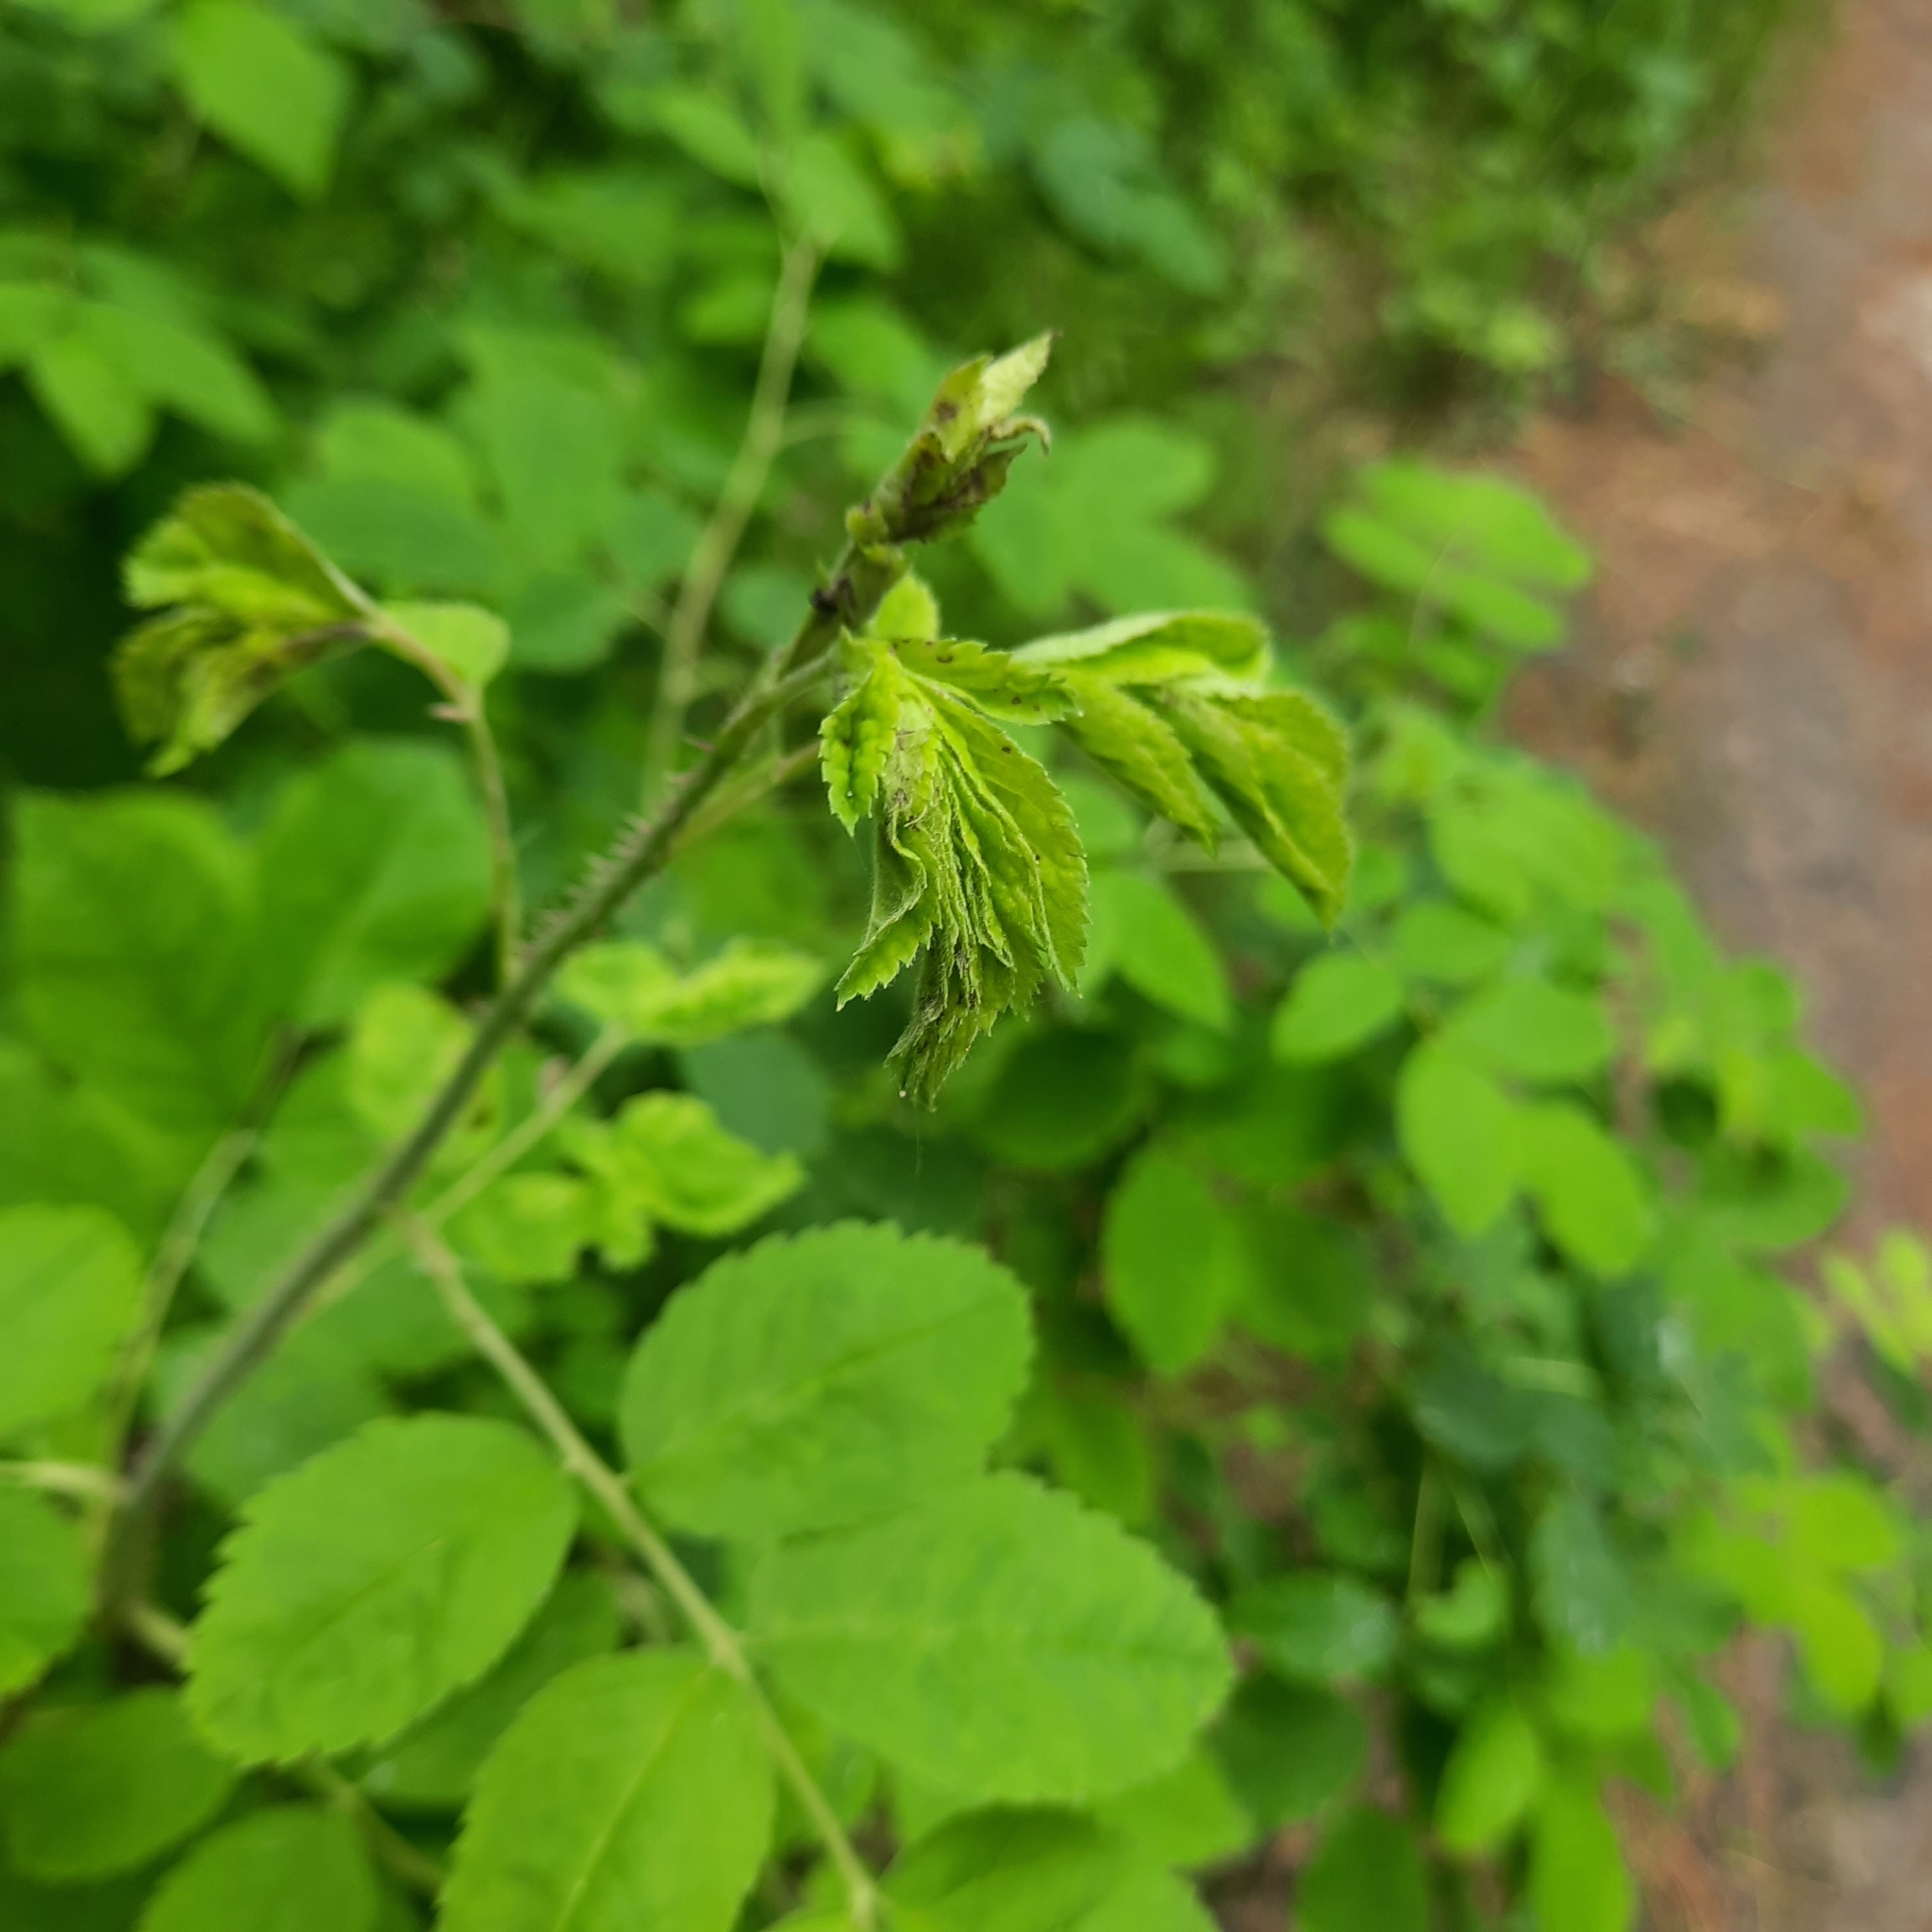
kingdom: Plantae
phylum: Tracheophyta
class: Magnoliopsida
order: Rosales
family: Rosaceae
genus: Rosa
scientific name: Rosa acicularis
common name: Prickly rose
